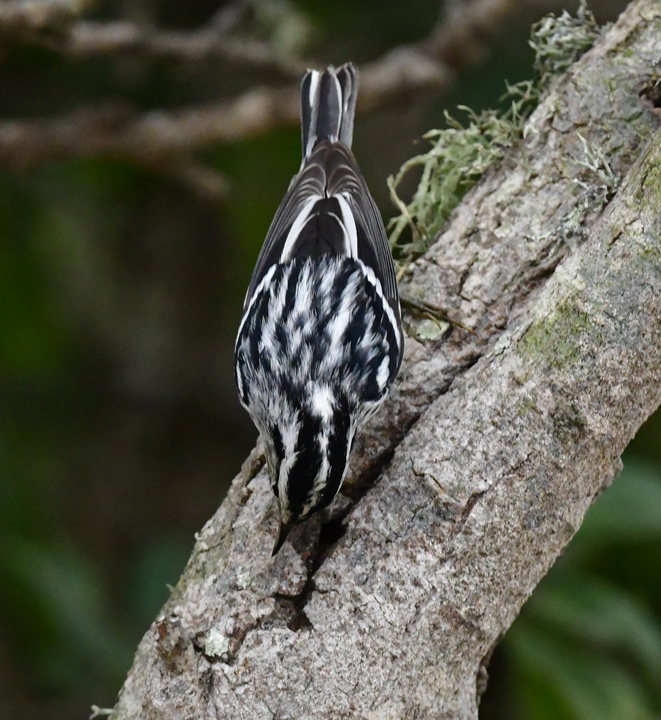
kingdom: Animalia
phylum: Chordata
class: Aves
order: Passeriformes
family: Parulidae
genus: Mniotilta
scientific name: Mniotilta varia
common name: Black-and-white warbler
